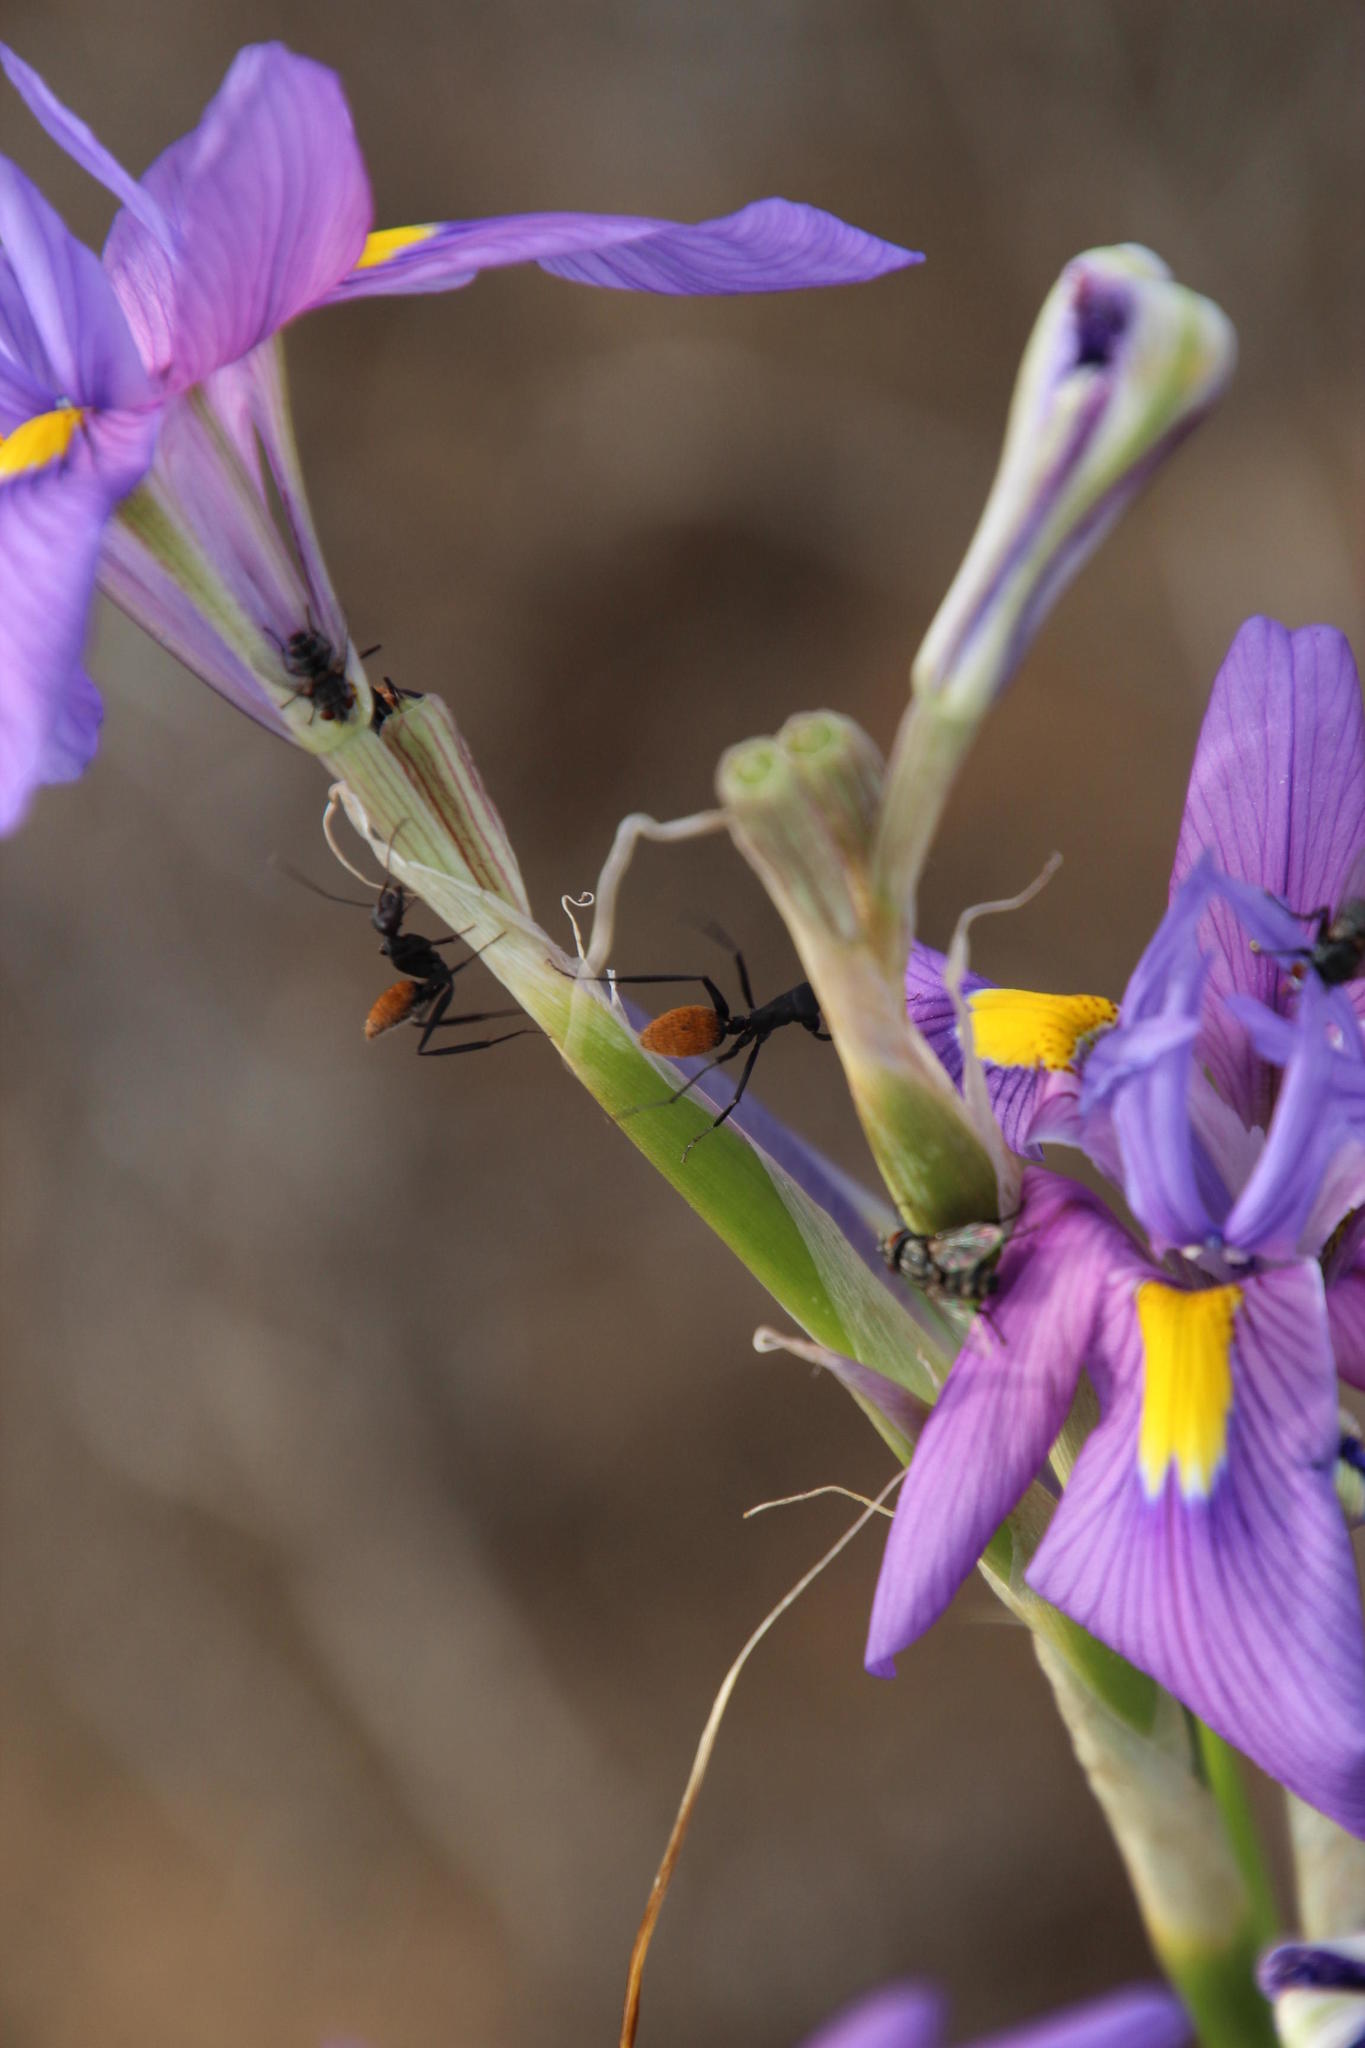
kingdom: Animalia
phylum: Arthropoda
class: Insecta
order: Hymenoptera
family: Formicidae
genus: Camponotus
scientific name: Camponotus fulvopilosus
